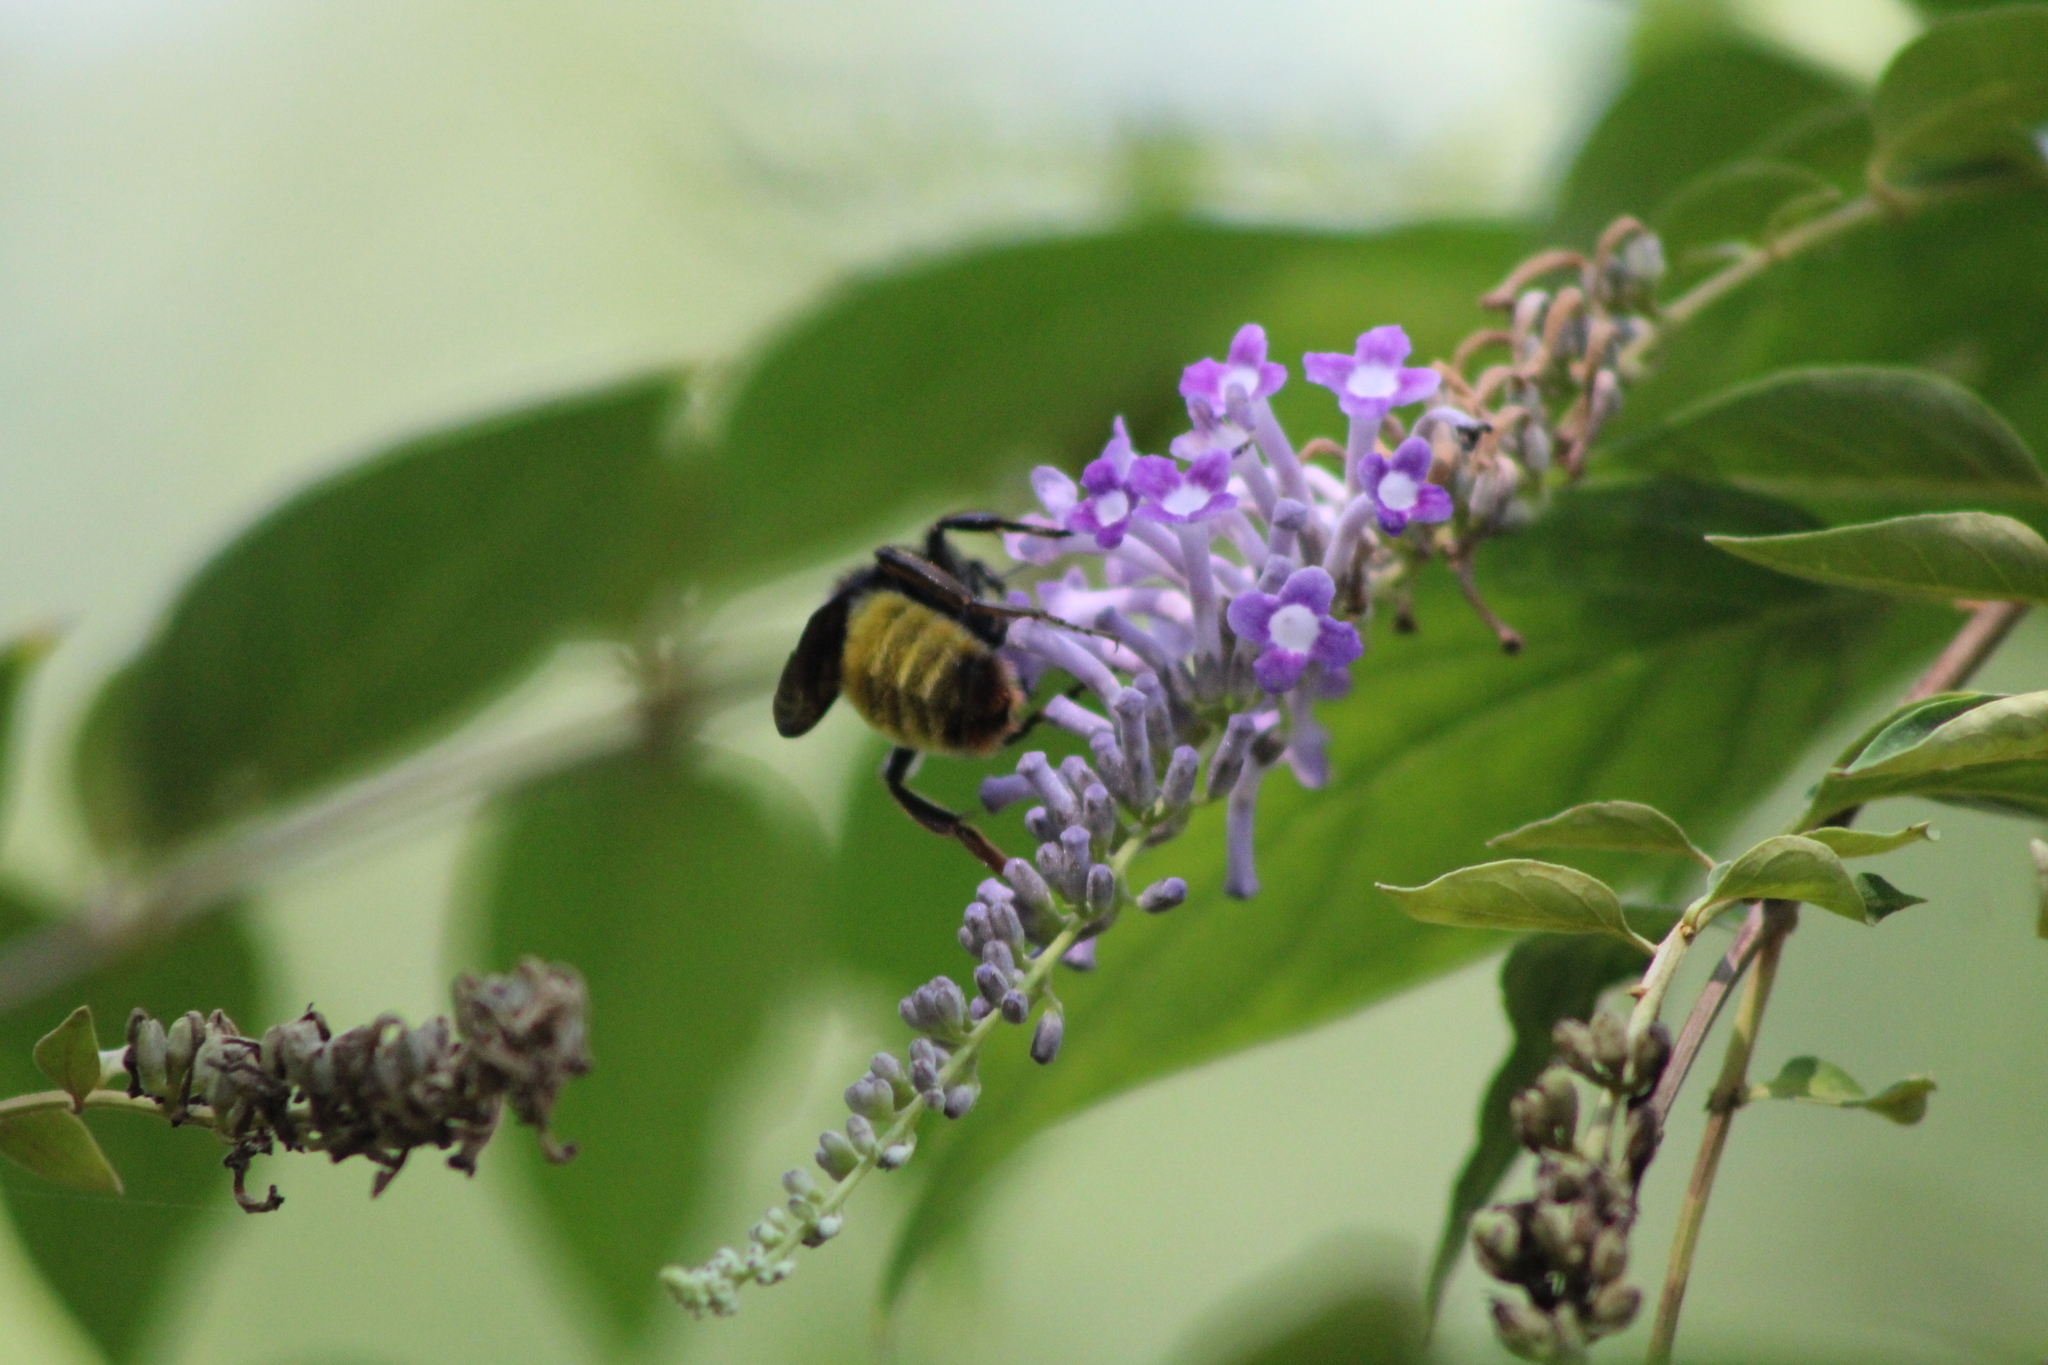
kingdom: Animalia
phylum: Arthropoda
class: Insecta
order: Hymenoptera
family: Apidae
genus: Bombus
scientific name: Bombus pensylvanicus
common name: Bumble bee
